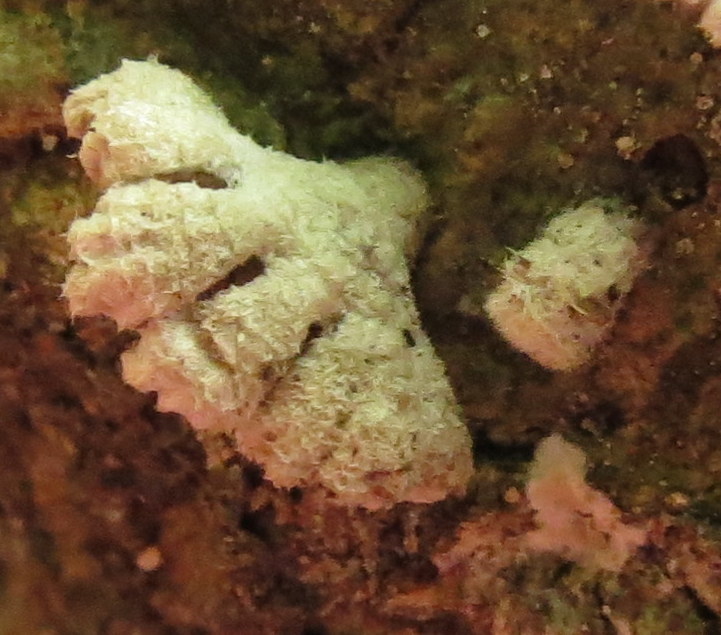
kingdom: Fungi
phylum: Basidiomycota
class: Agaricomycetes
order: Agaricales
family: Schizophyllaceae
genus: Schizophyllum
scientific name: Schizophyllum commune
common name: Common porecrust
